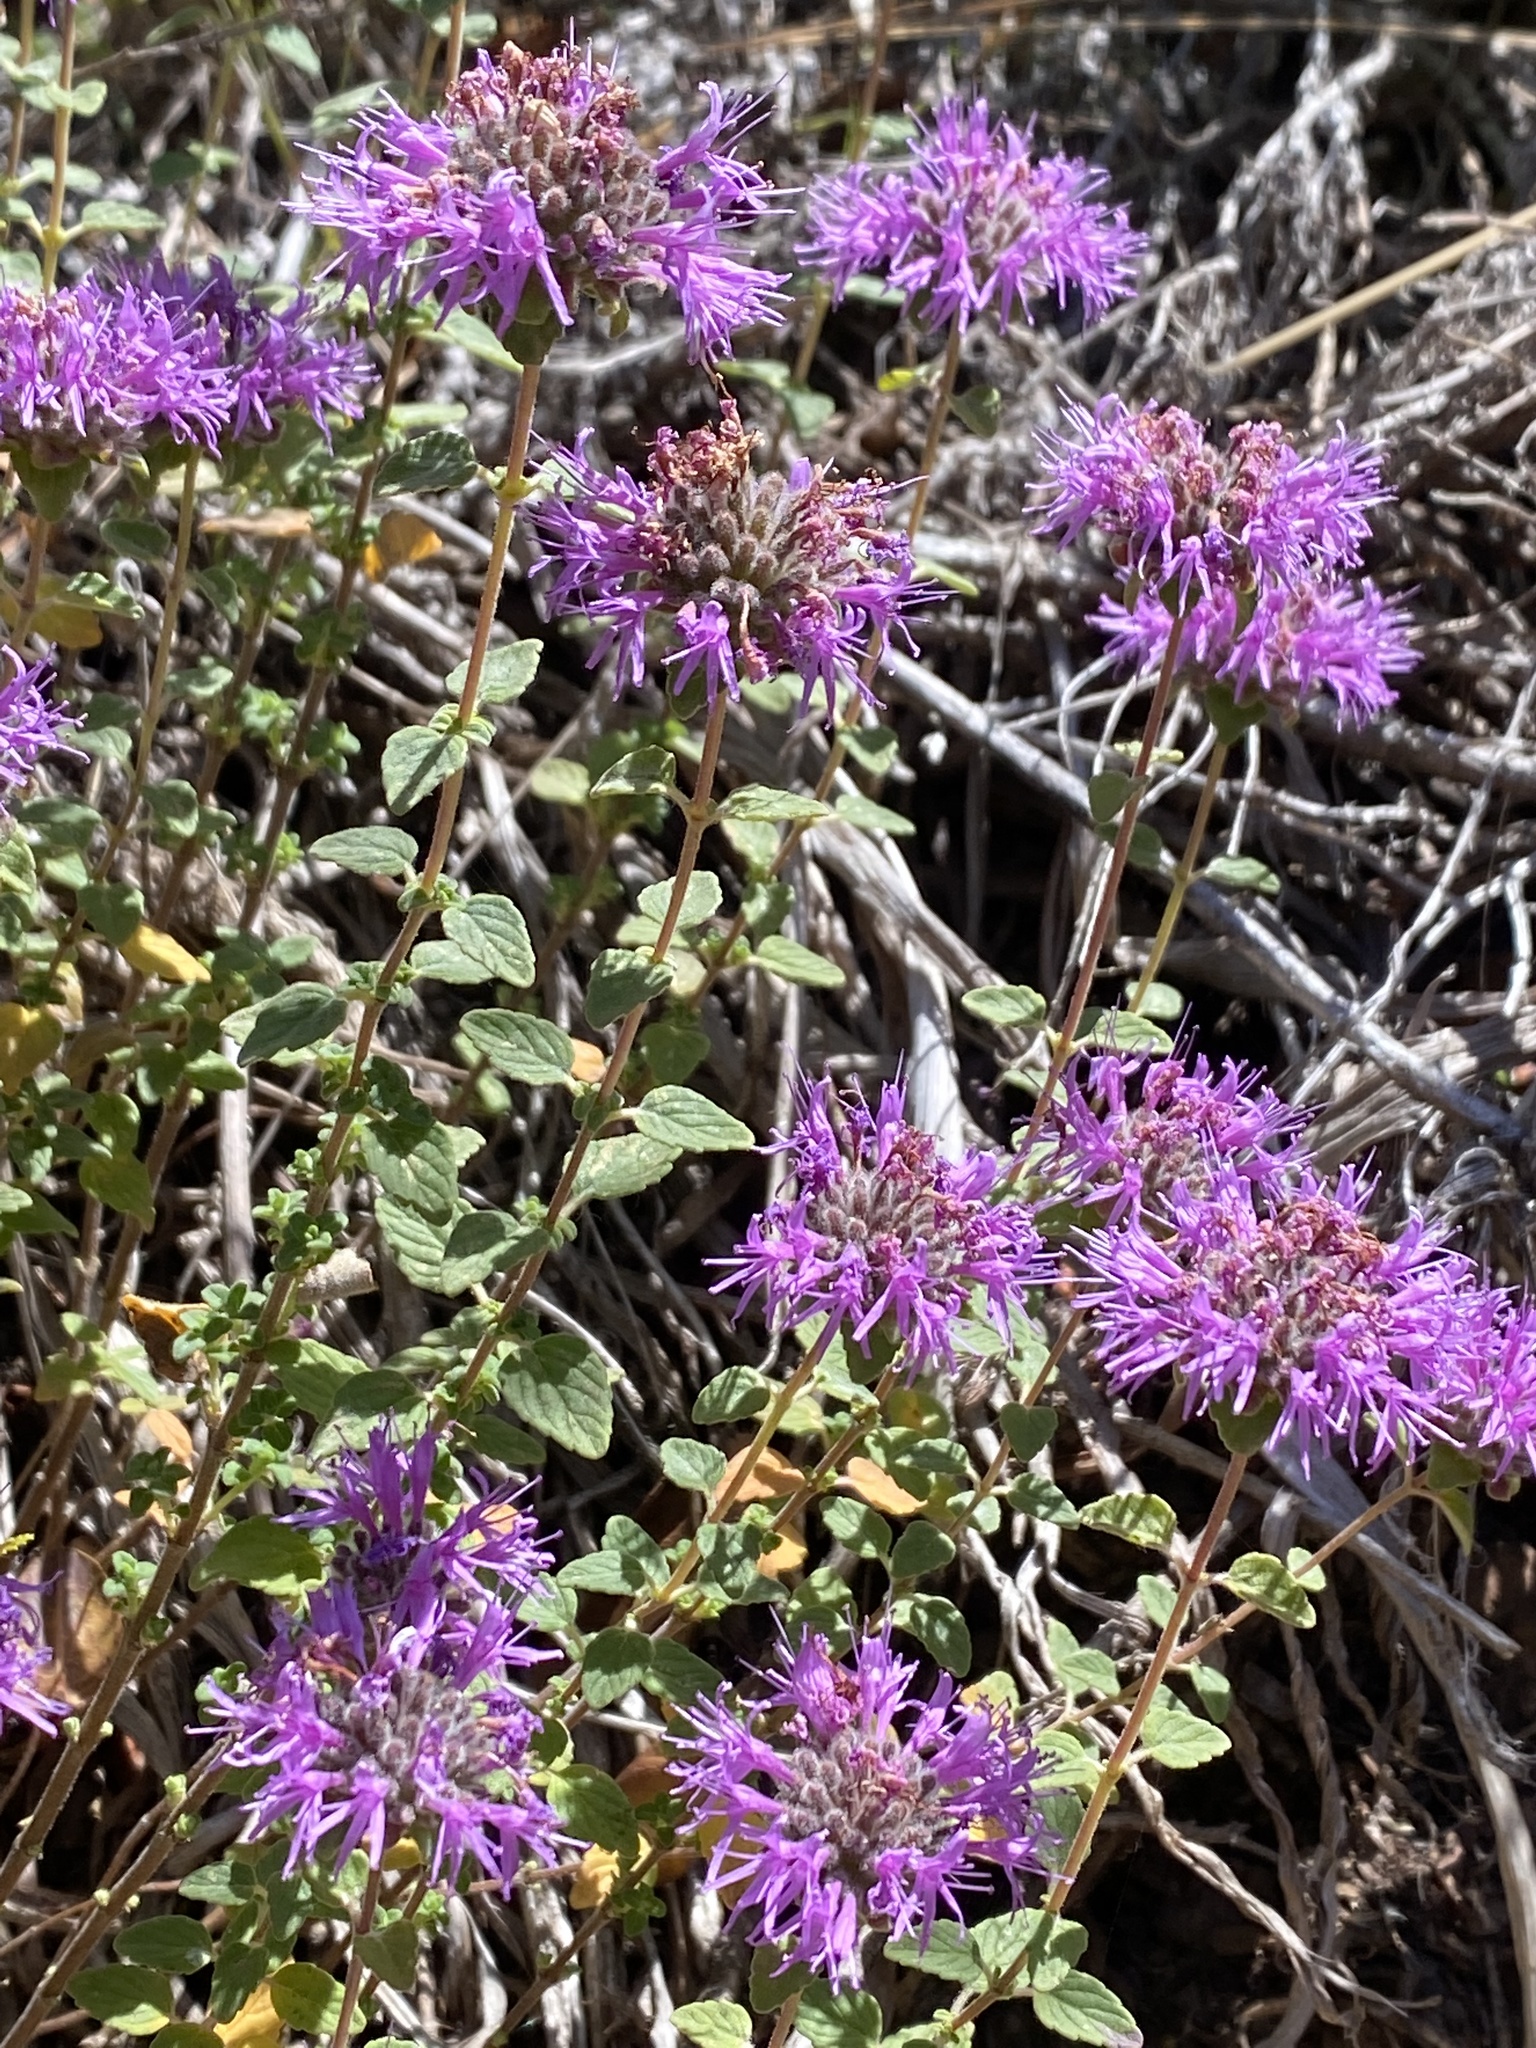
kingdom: Plantae
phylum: Tracheophyta
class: Magnoliopsida
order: Lamiales
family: Lamiaceae
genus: Monardella
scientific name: Monardella odoratissima
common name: Pacific monardella
